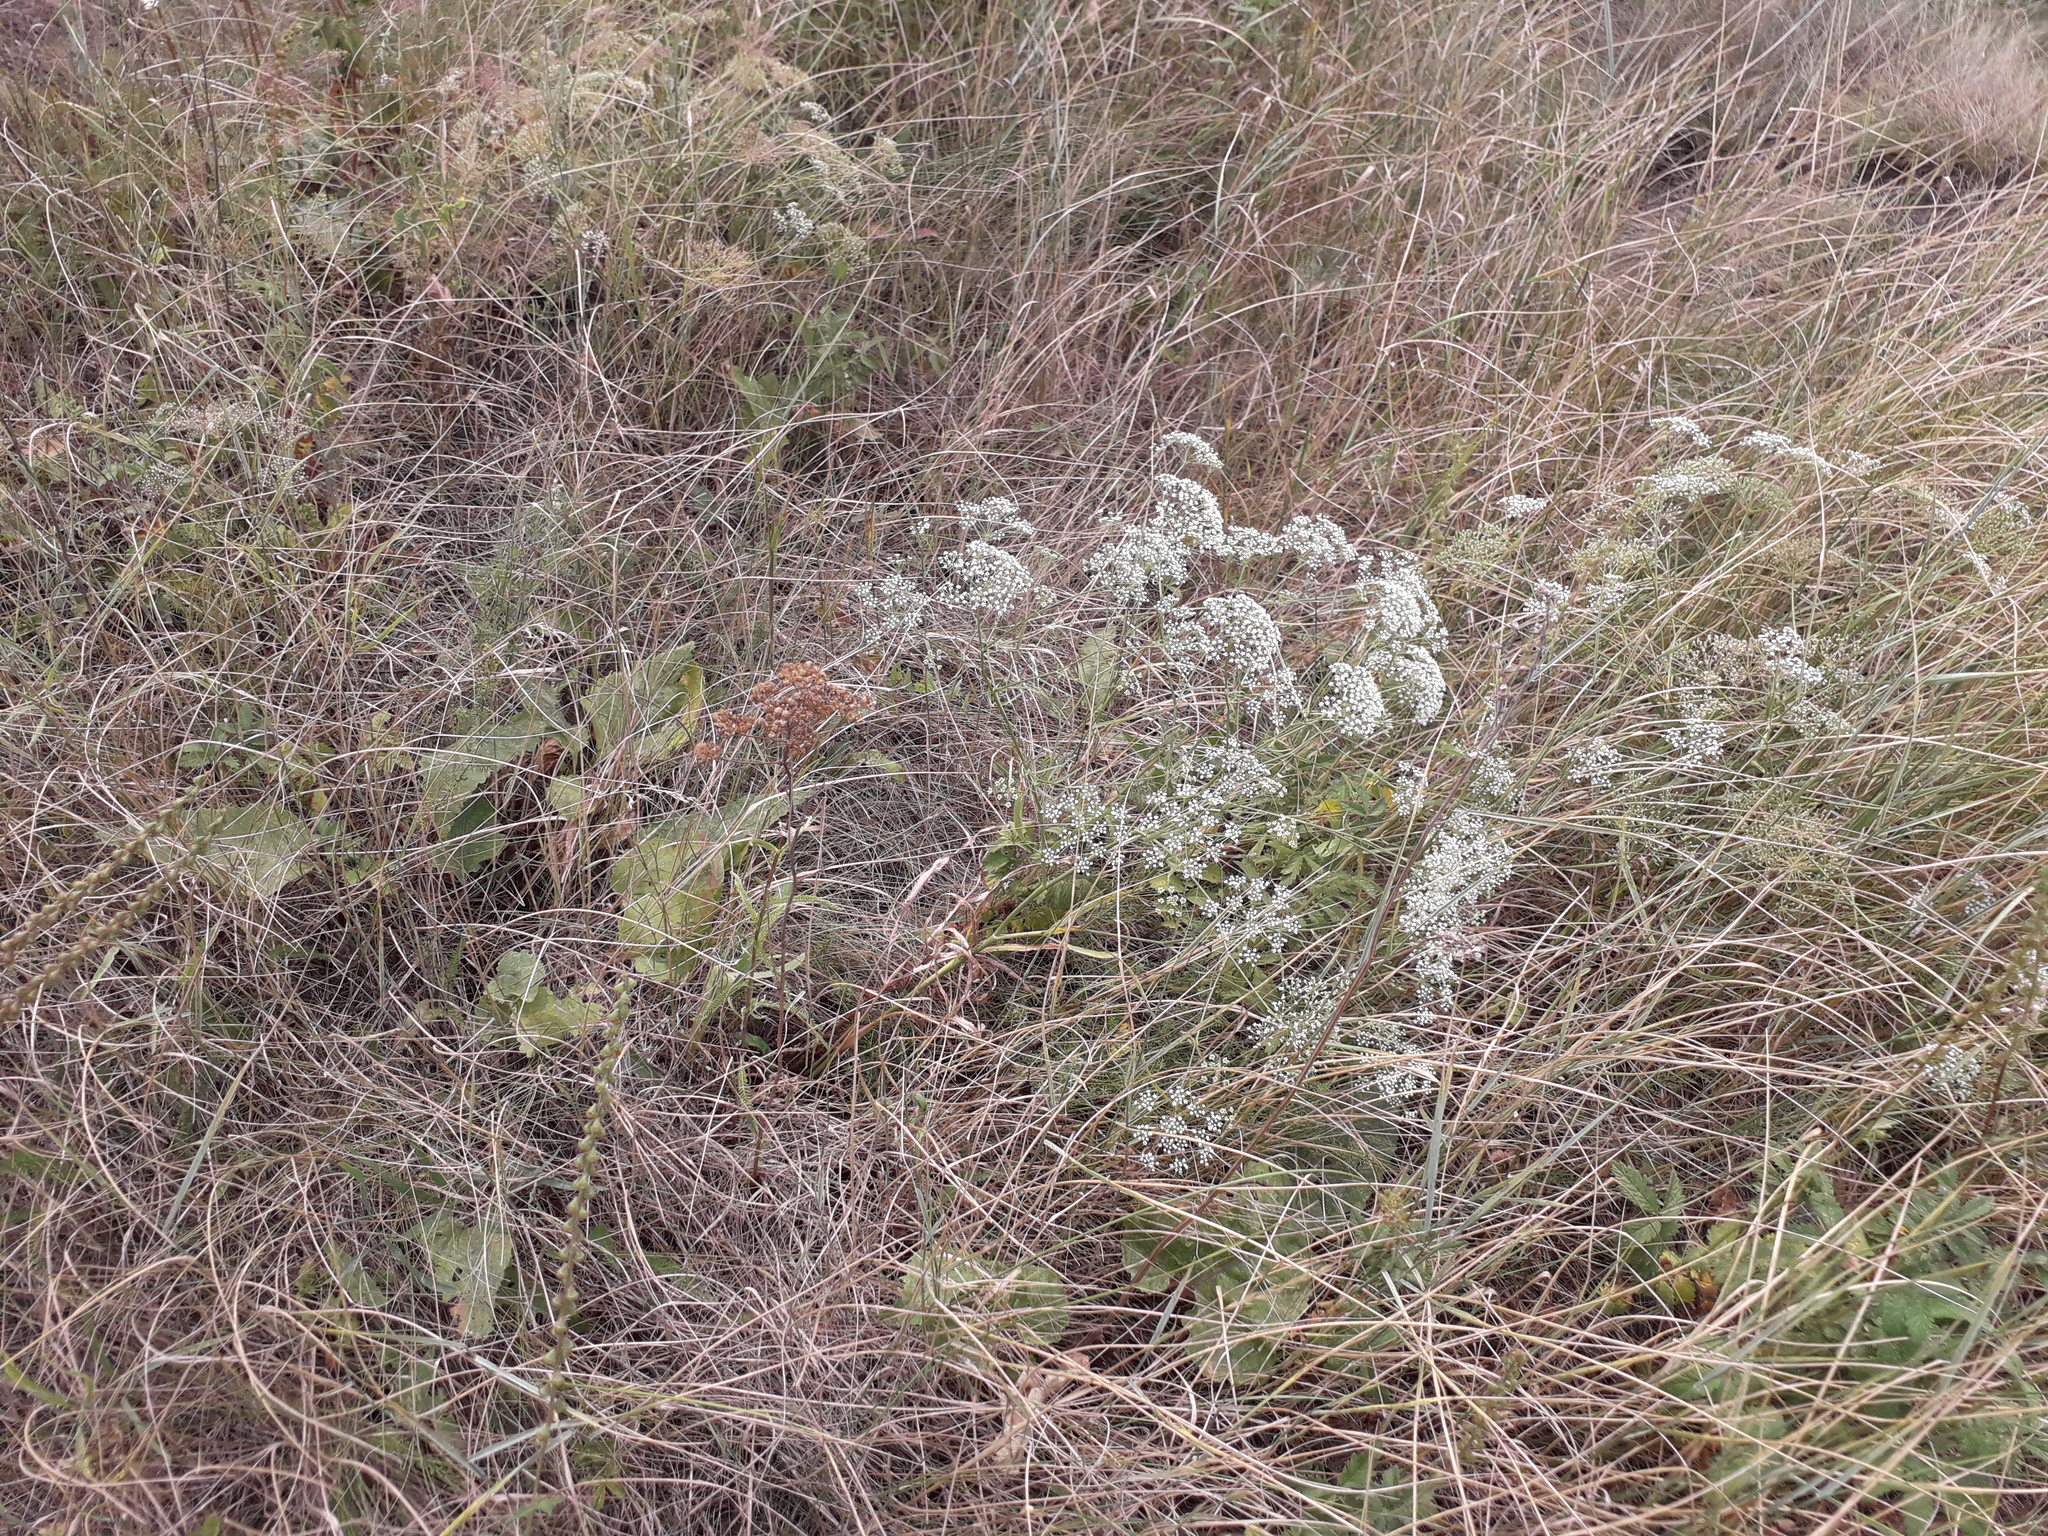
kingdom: Plantae
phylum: Tracheophyta
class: Magnoliopsida
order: Apiales
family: Apiaceae
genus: Falcaria
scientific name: Falcaria vulgaris
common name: Longleaf
